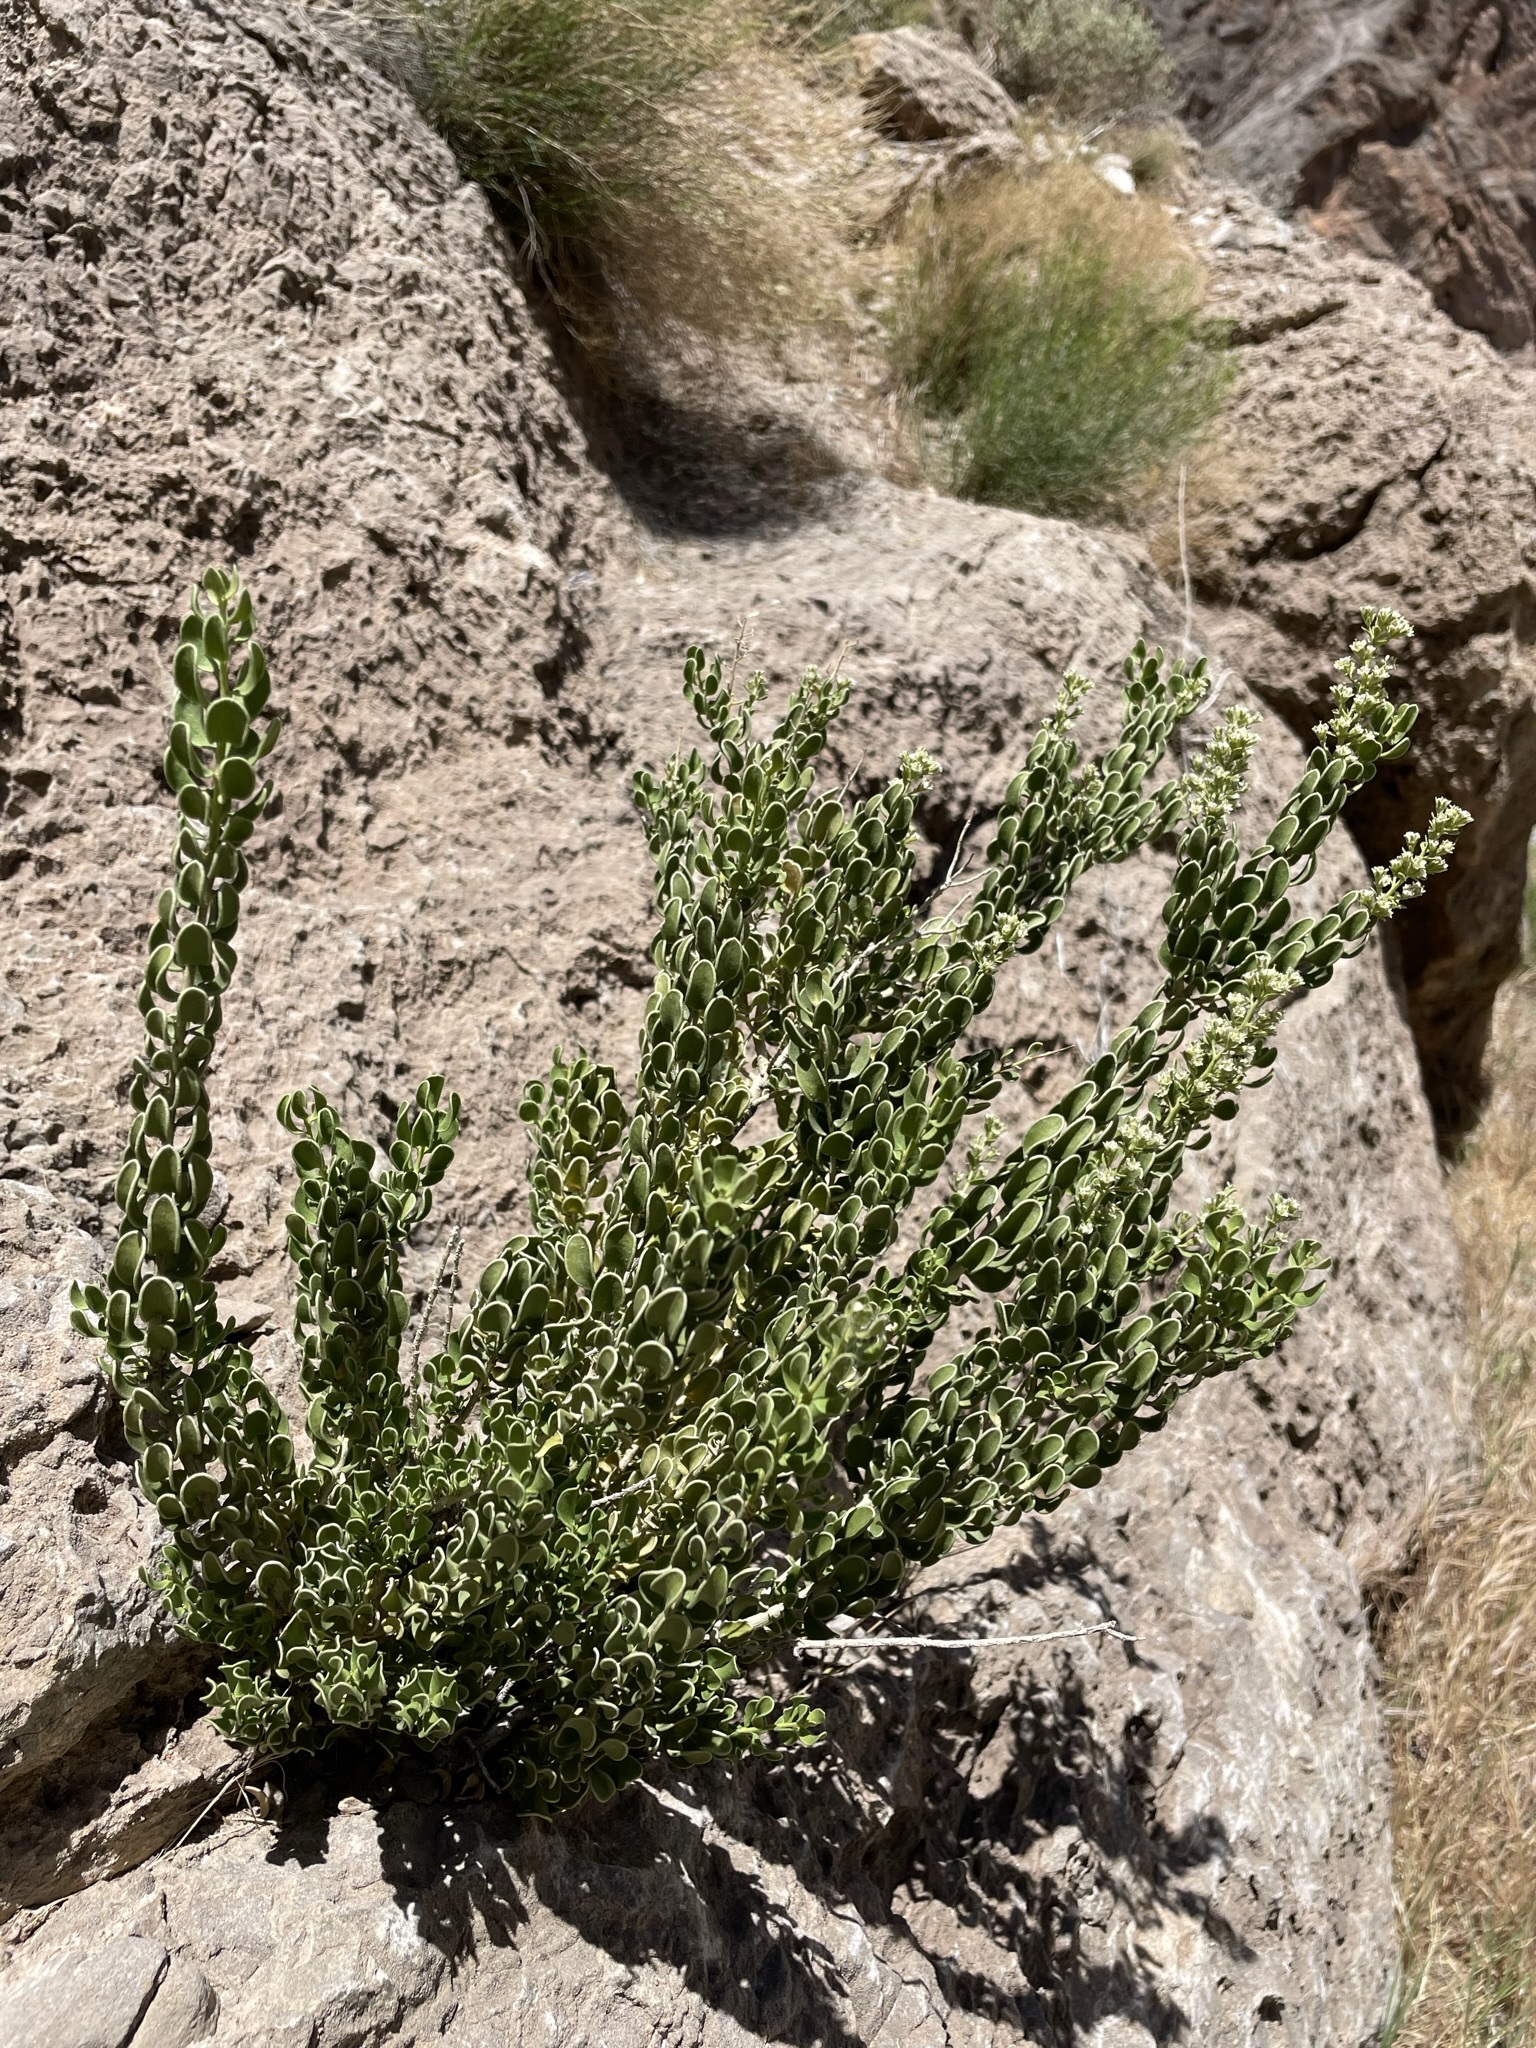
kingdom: Plantae
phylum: Tracheophyta
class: Magnoliopsida
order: Celastrales
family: Celastraceae
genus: Mortonia
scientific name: Mortonia utahensis
